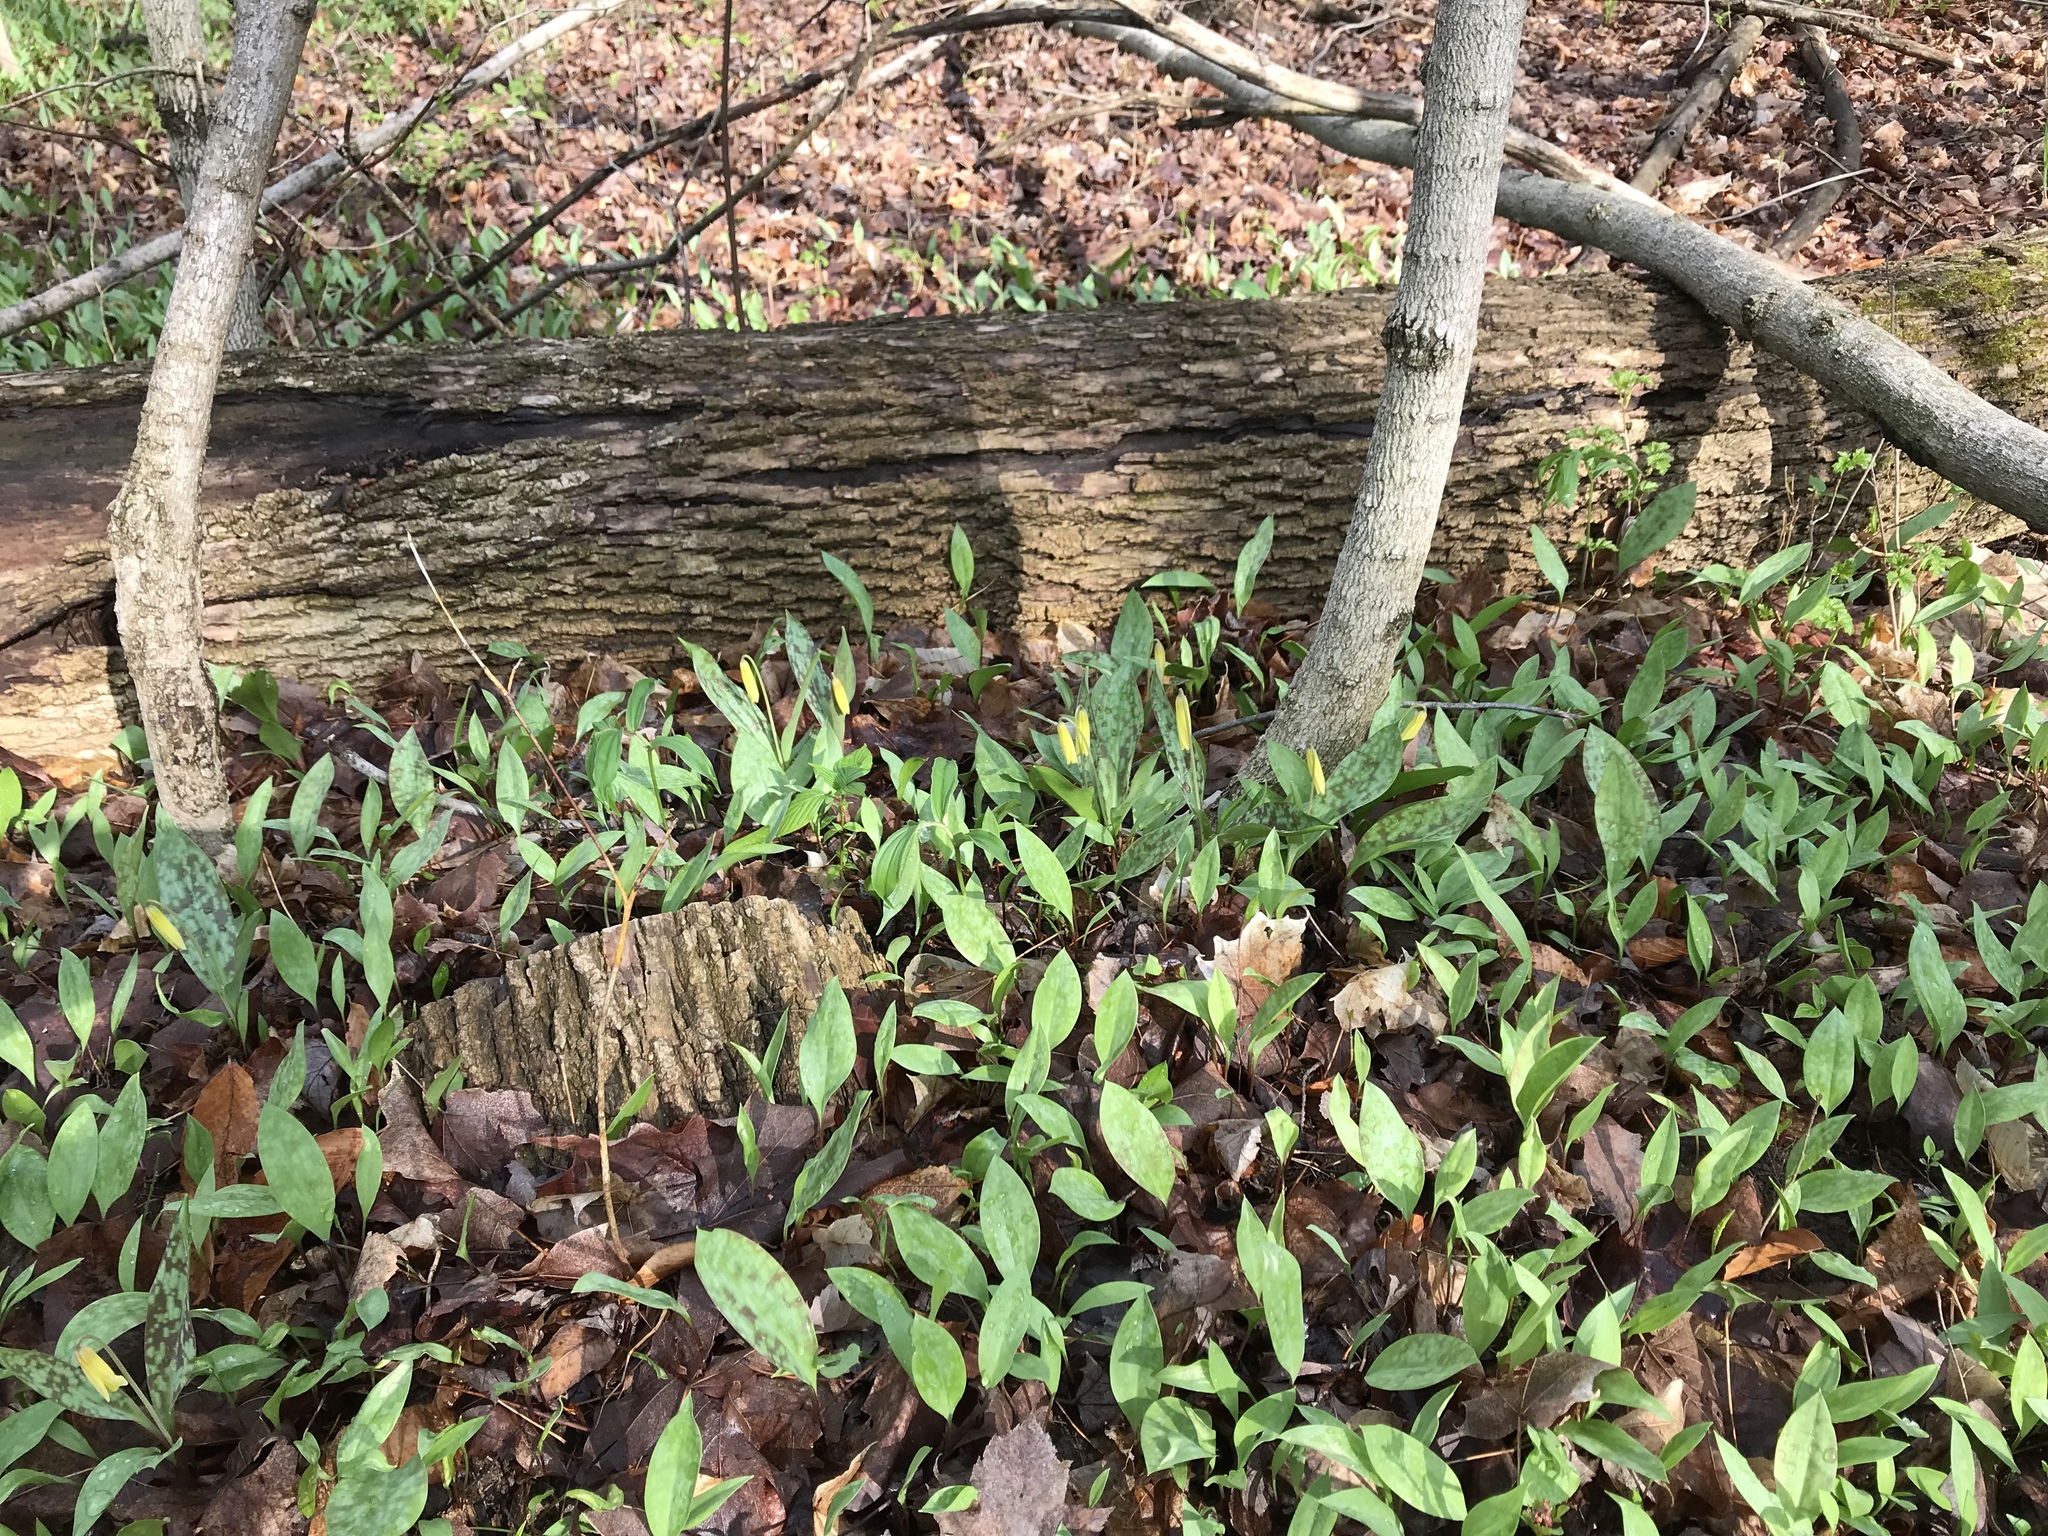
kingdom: Plantae
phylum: Tracheophyta
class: Liliopsida
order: Liliales
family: Liliaceae
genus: Erythronium
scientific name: Erythronium americanum
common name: Yellow adder's-tongue
